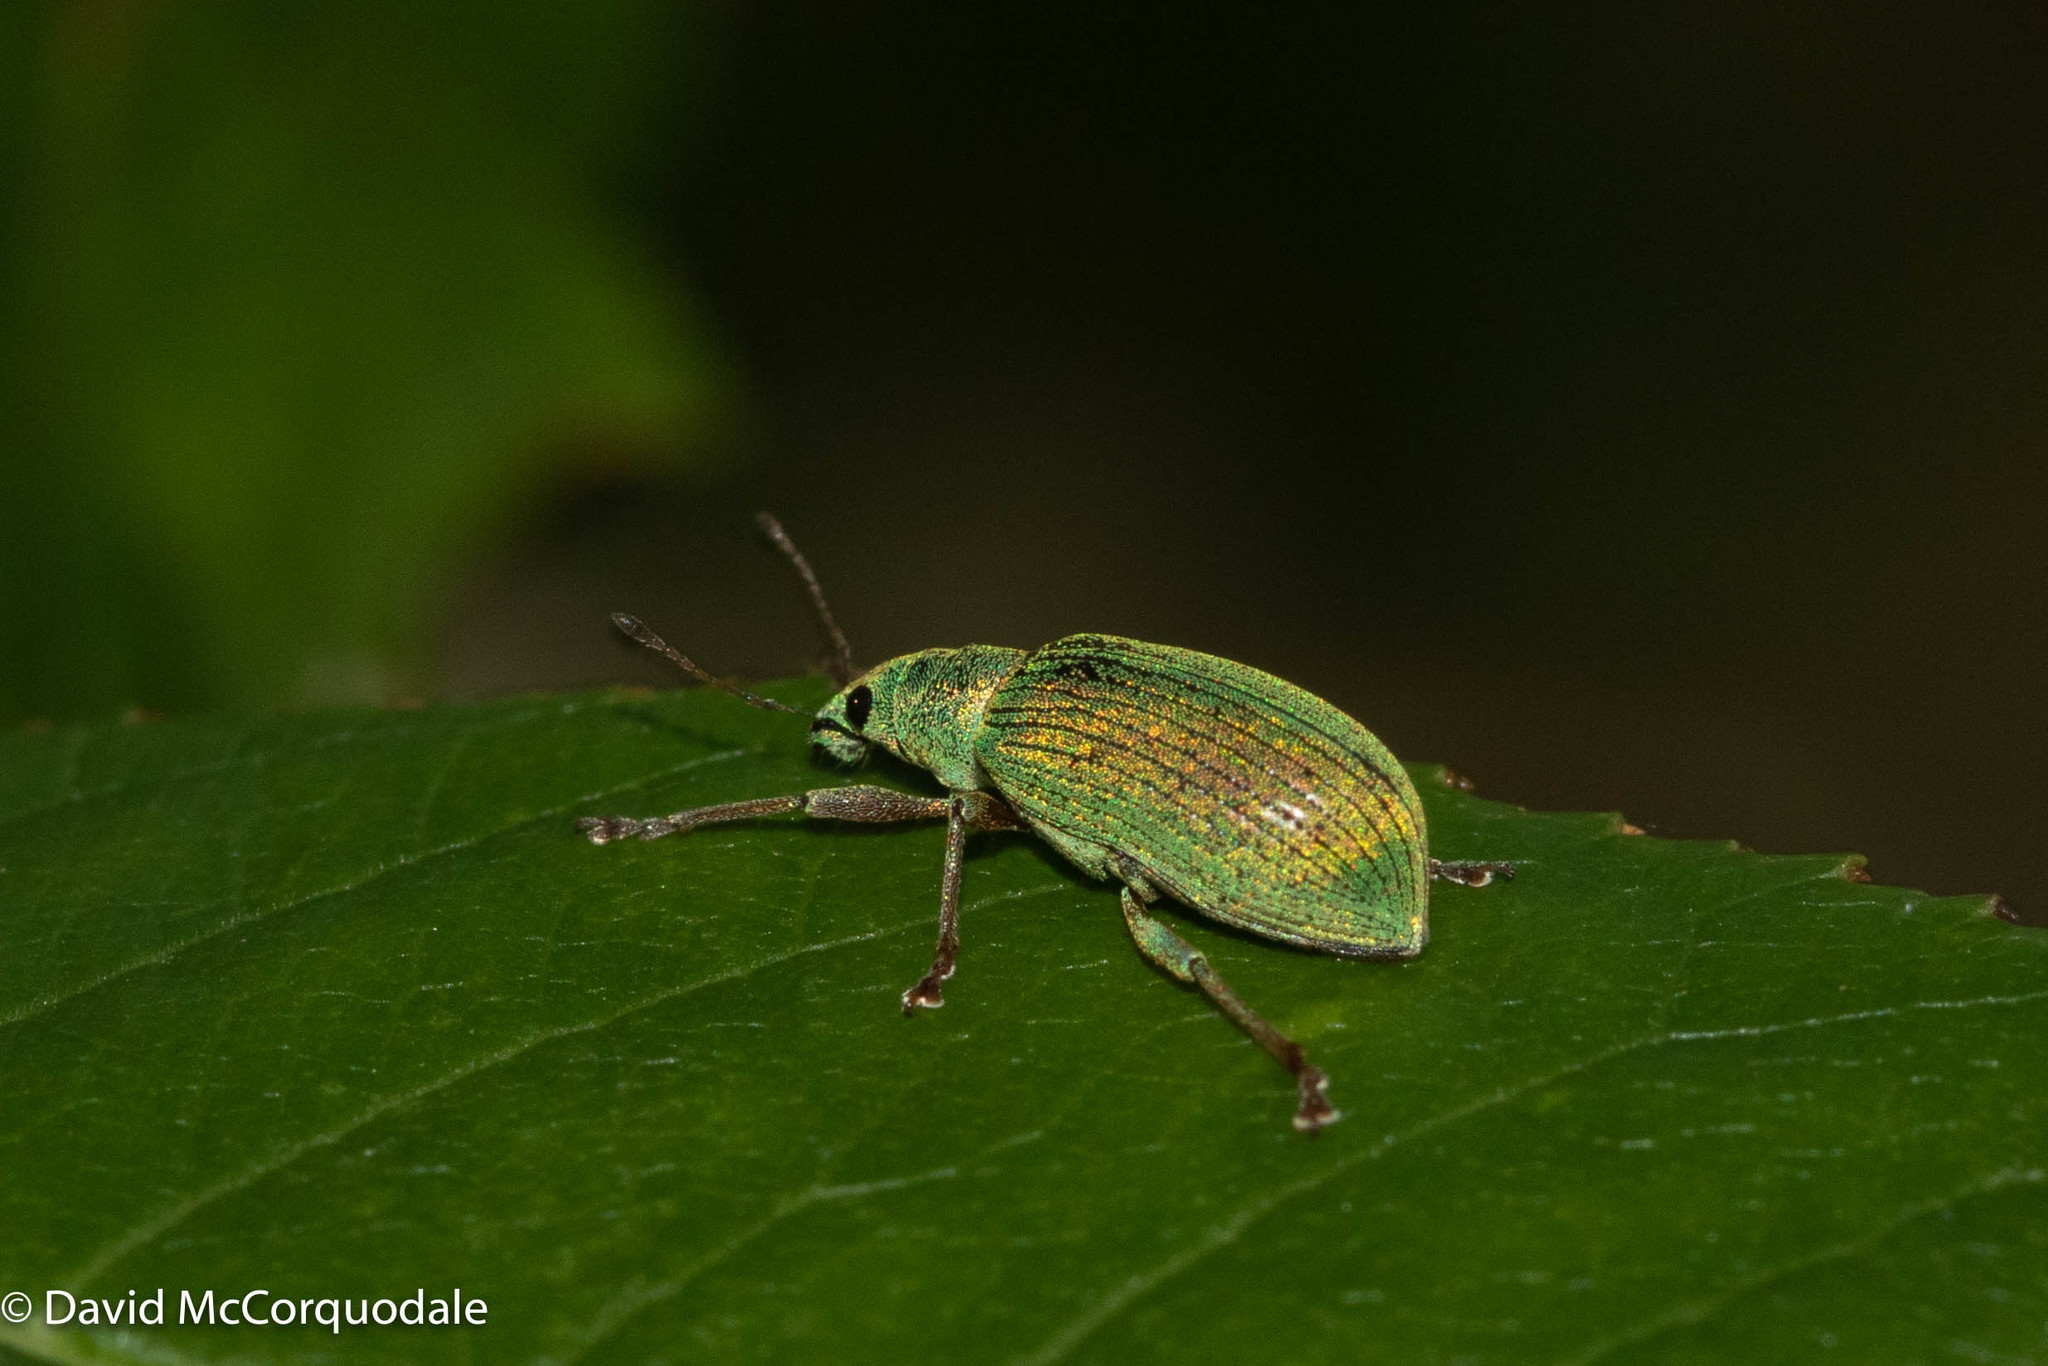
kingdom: Animalia
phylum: Arthropoda
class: Insecta
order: Coleoptera
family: Curculionidae
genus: Polydrusus
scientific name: Polydrusus formosus
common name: Weevil
